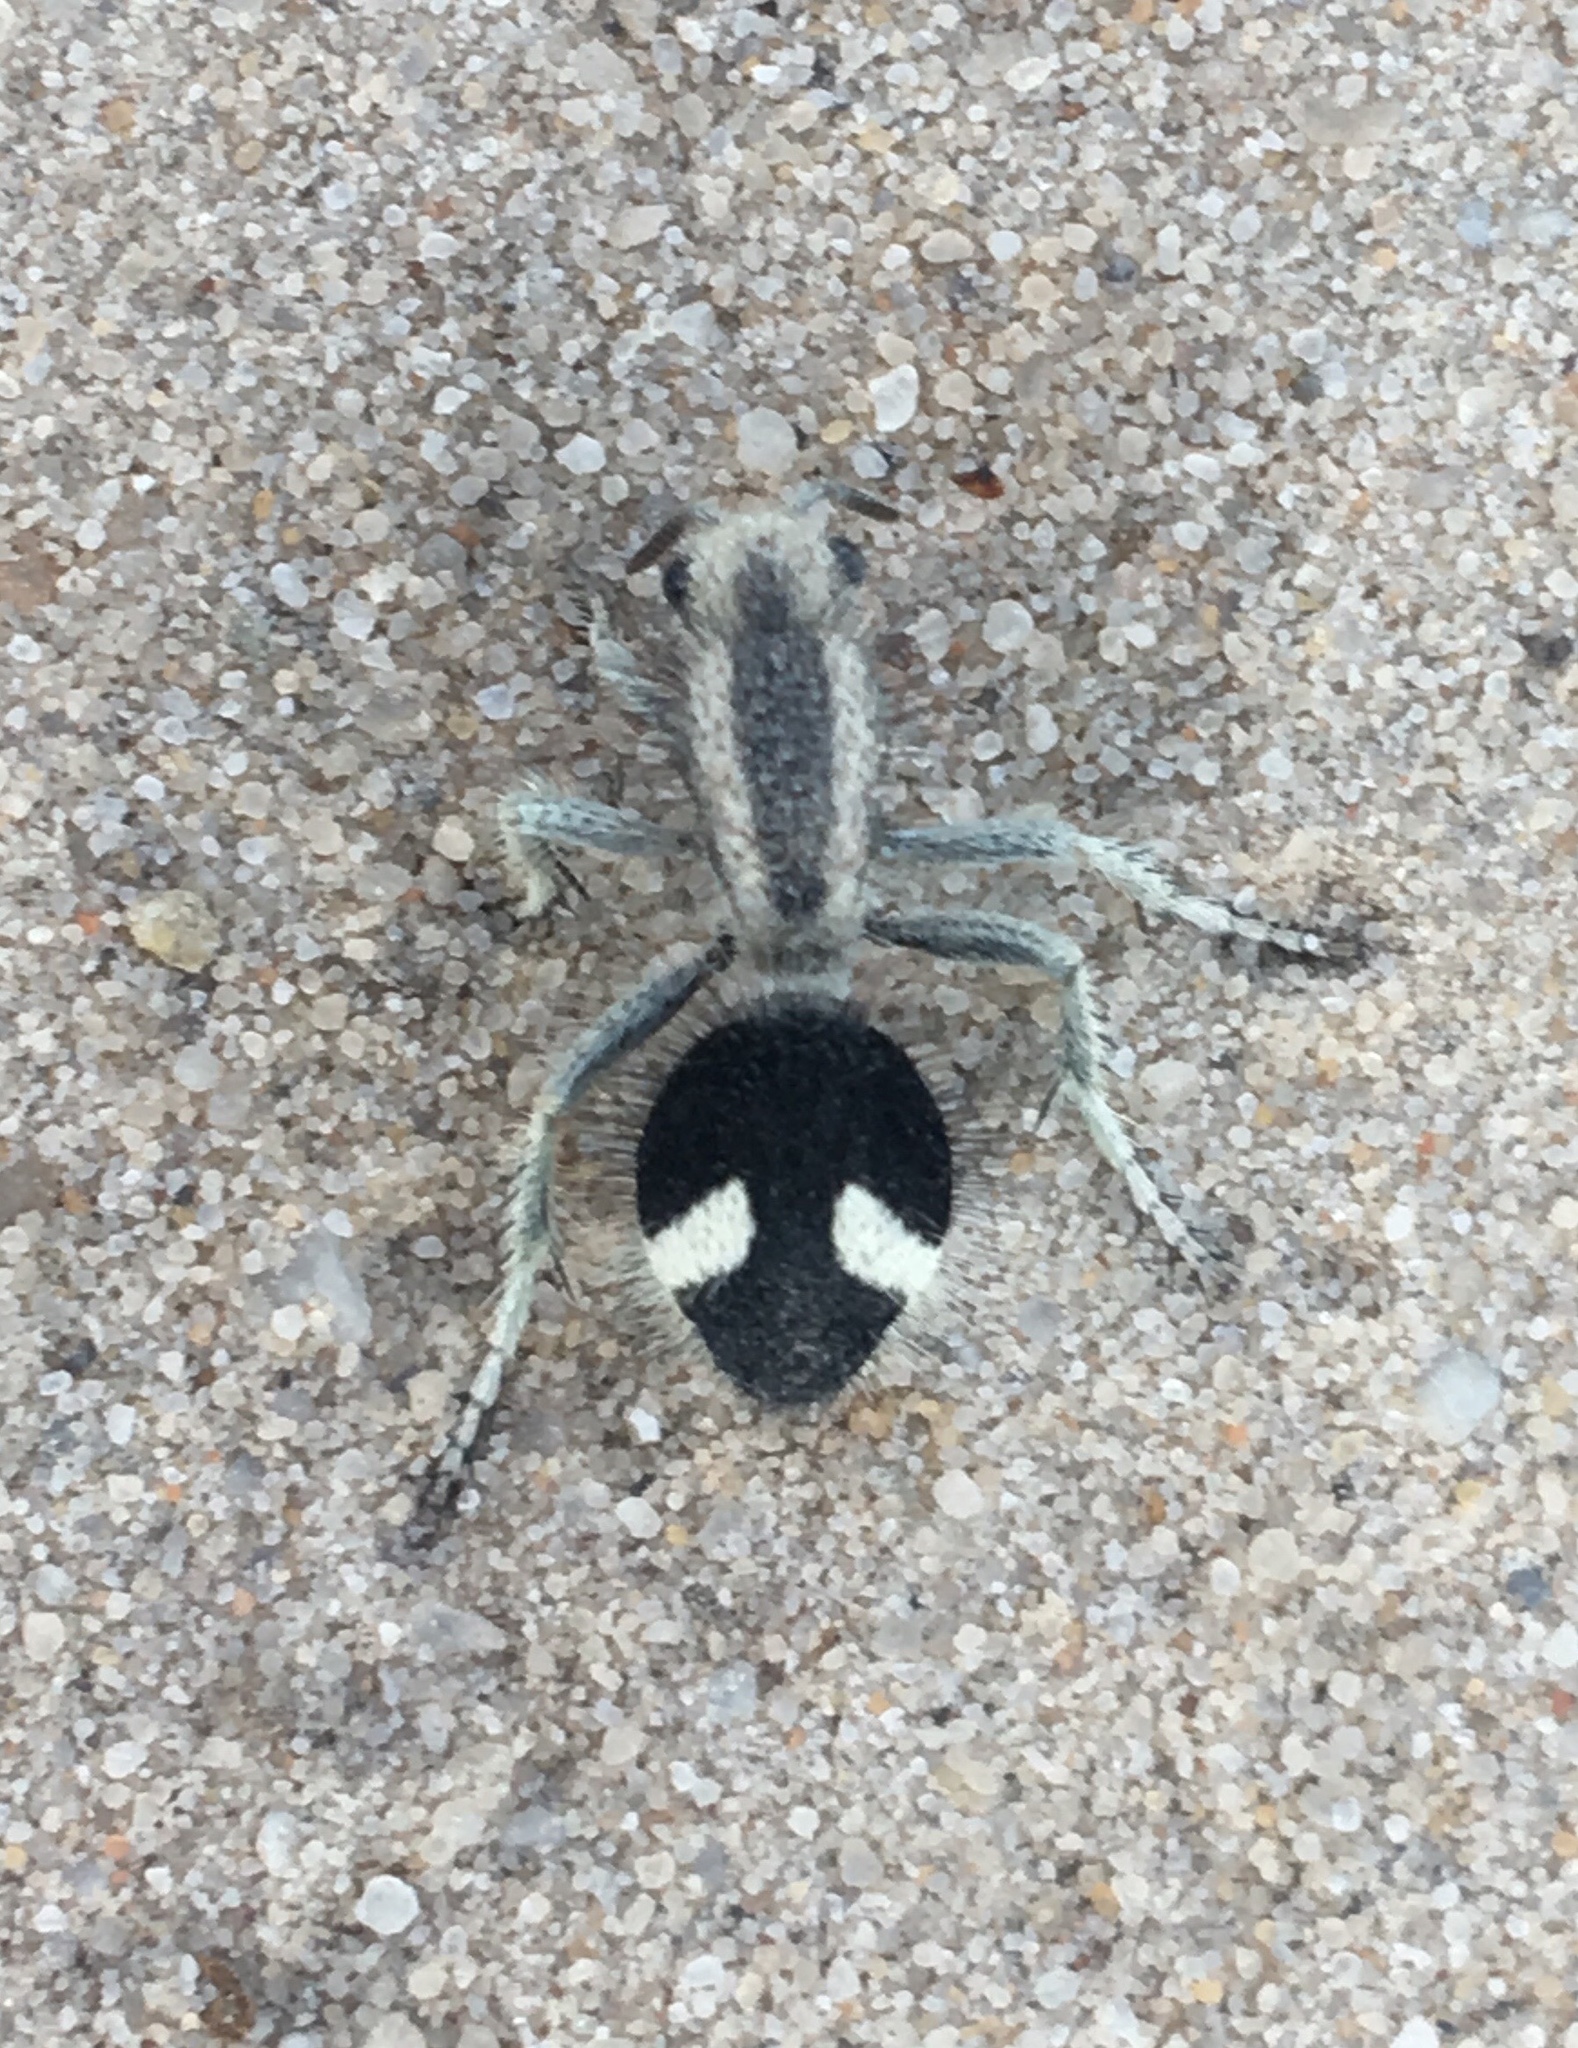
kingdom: Animalia
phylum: Arthropoda
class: Insecta
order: Hymenoptera
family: Mutillidae
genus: Suareztilla
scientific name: Suareztilla
